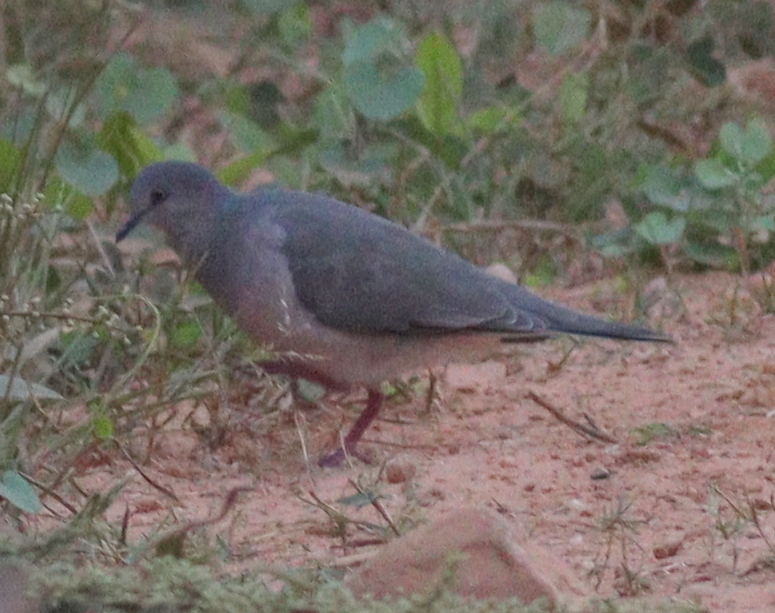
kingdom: Animalia
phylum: Chordata
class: Aves
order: Columbiformes
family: Columbidae
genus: Leptotila
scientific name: Leptotila verreauxi
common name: White-tipped dove
